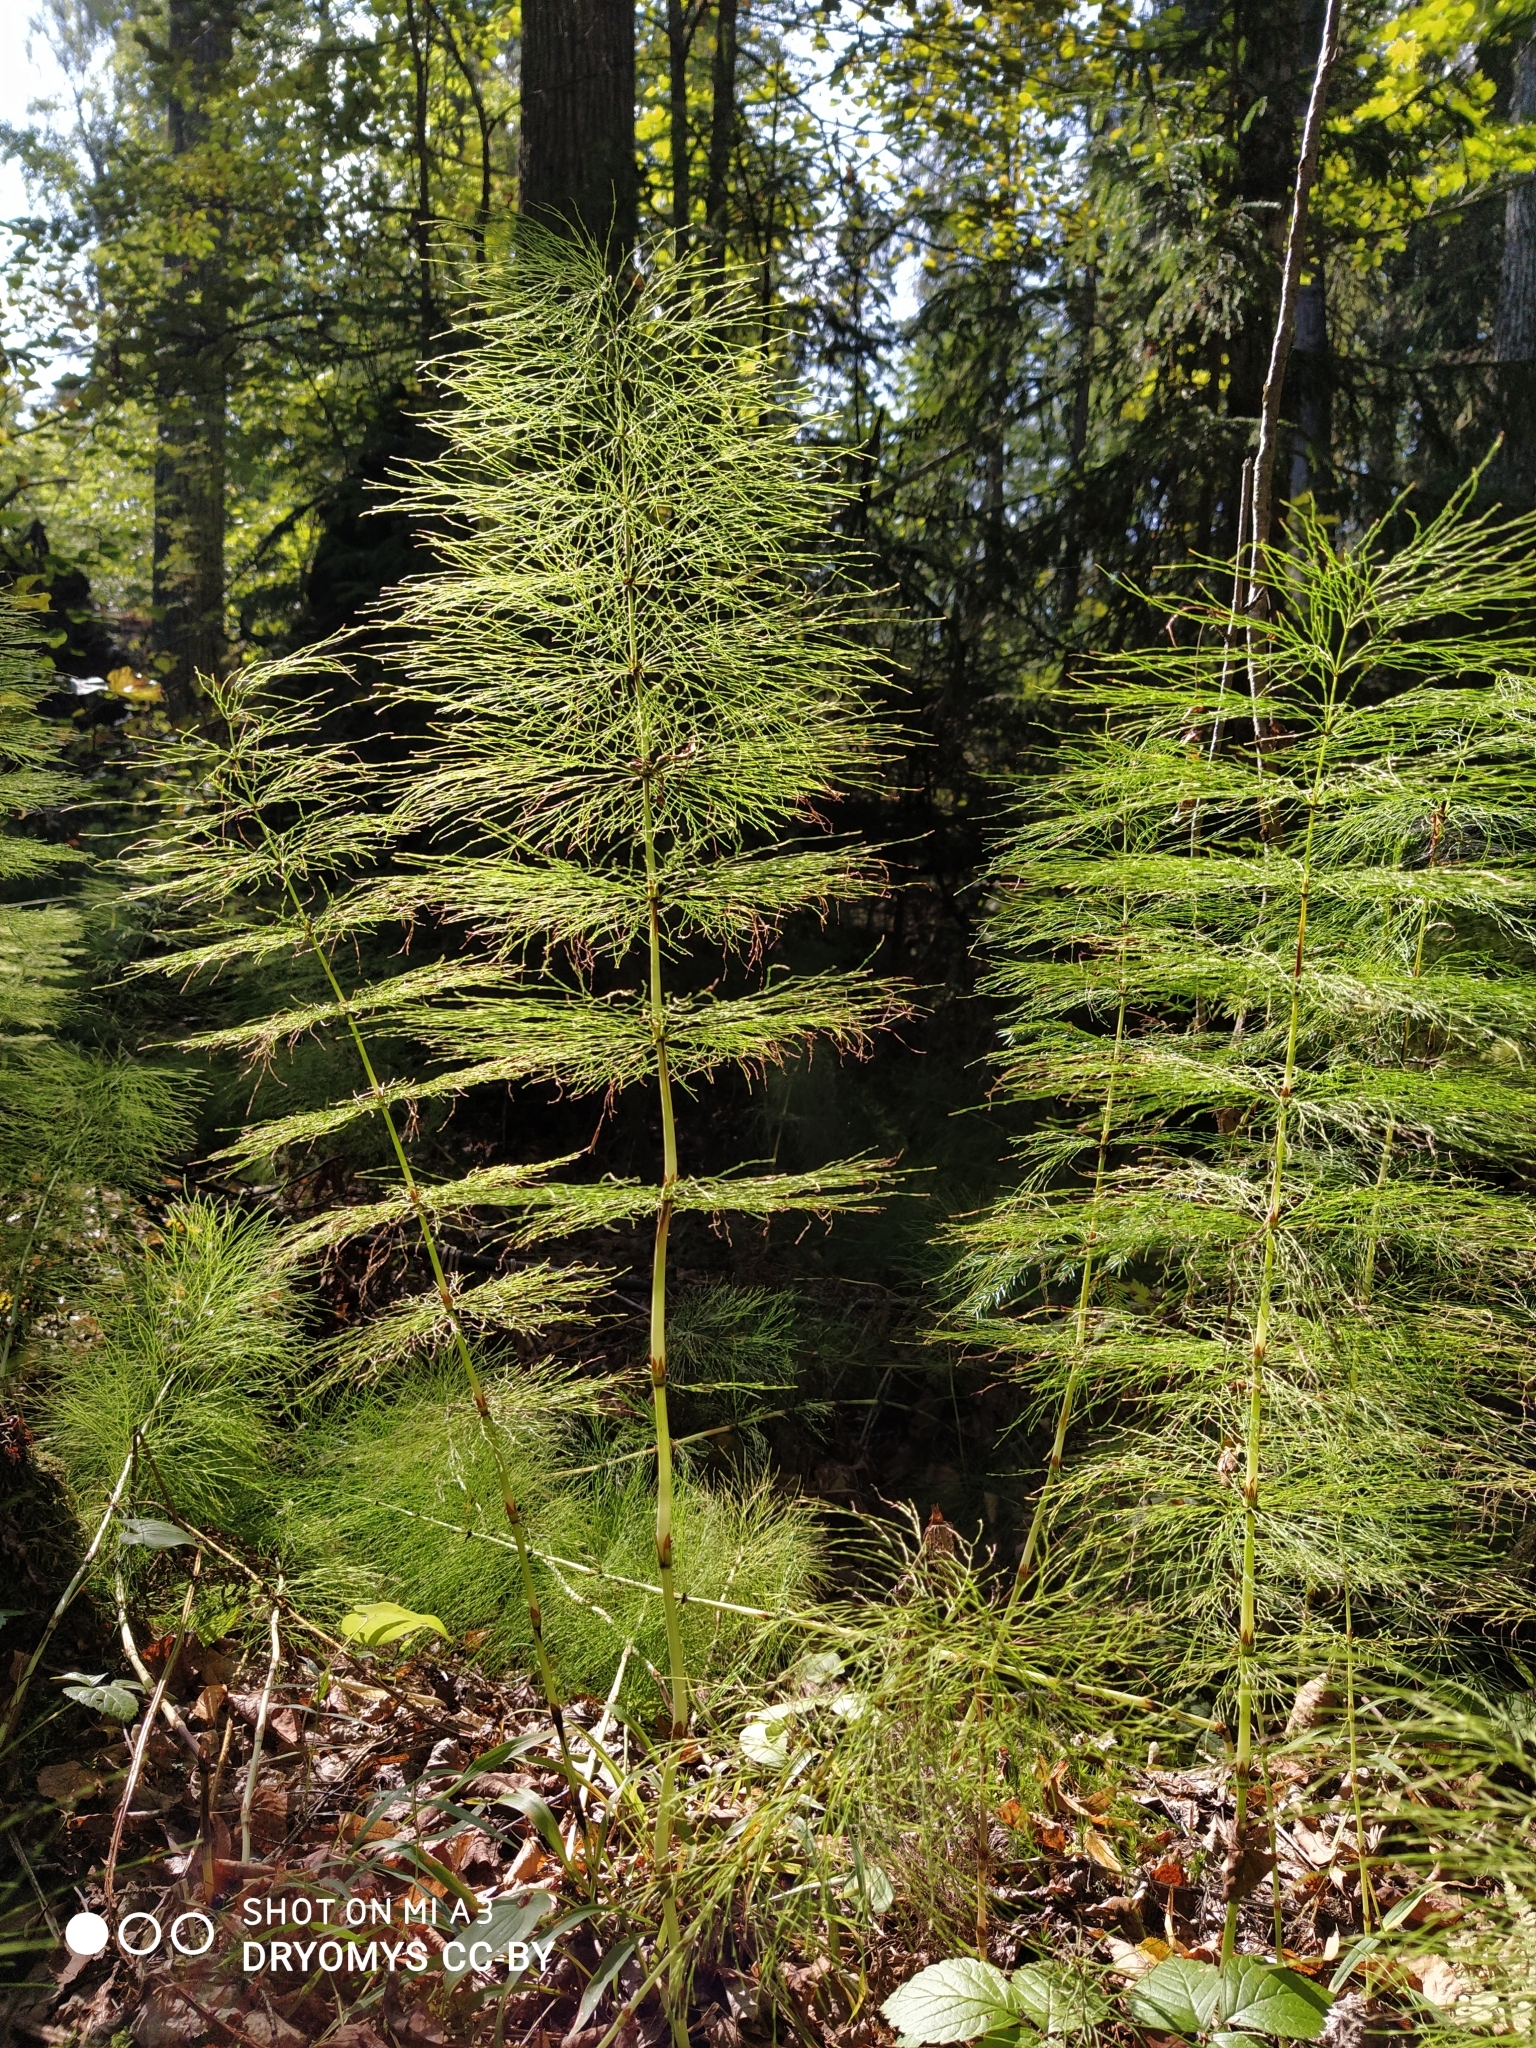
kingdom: Plantae
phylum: Tracheophyta
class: Polypodiopsida
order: Equisetales
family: Equisetaceae
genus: Equisetum
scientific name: Equisetum sylvaticum
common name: Wood horsetail
